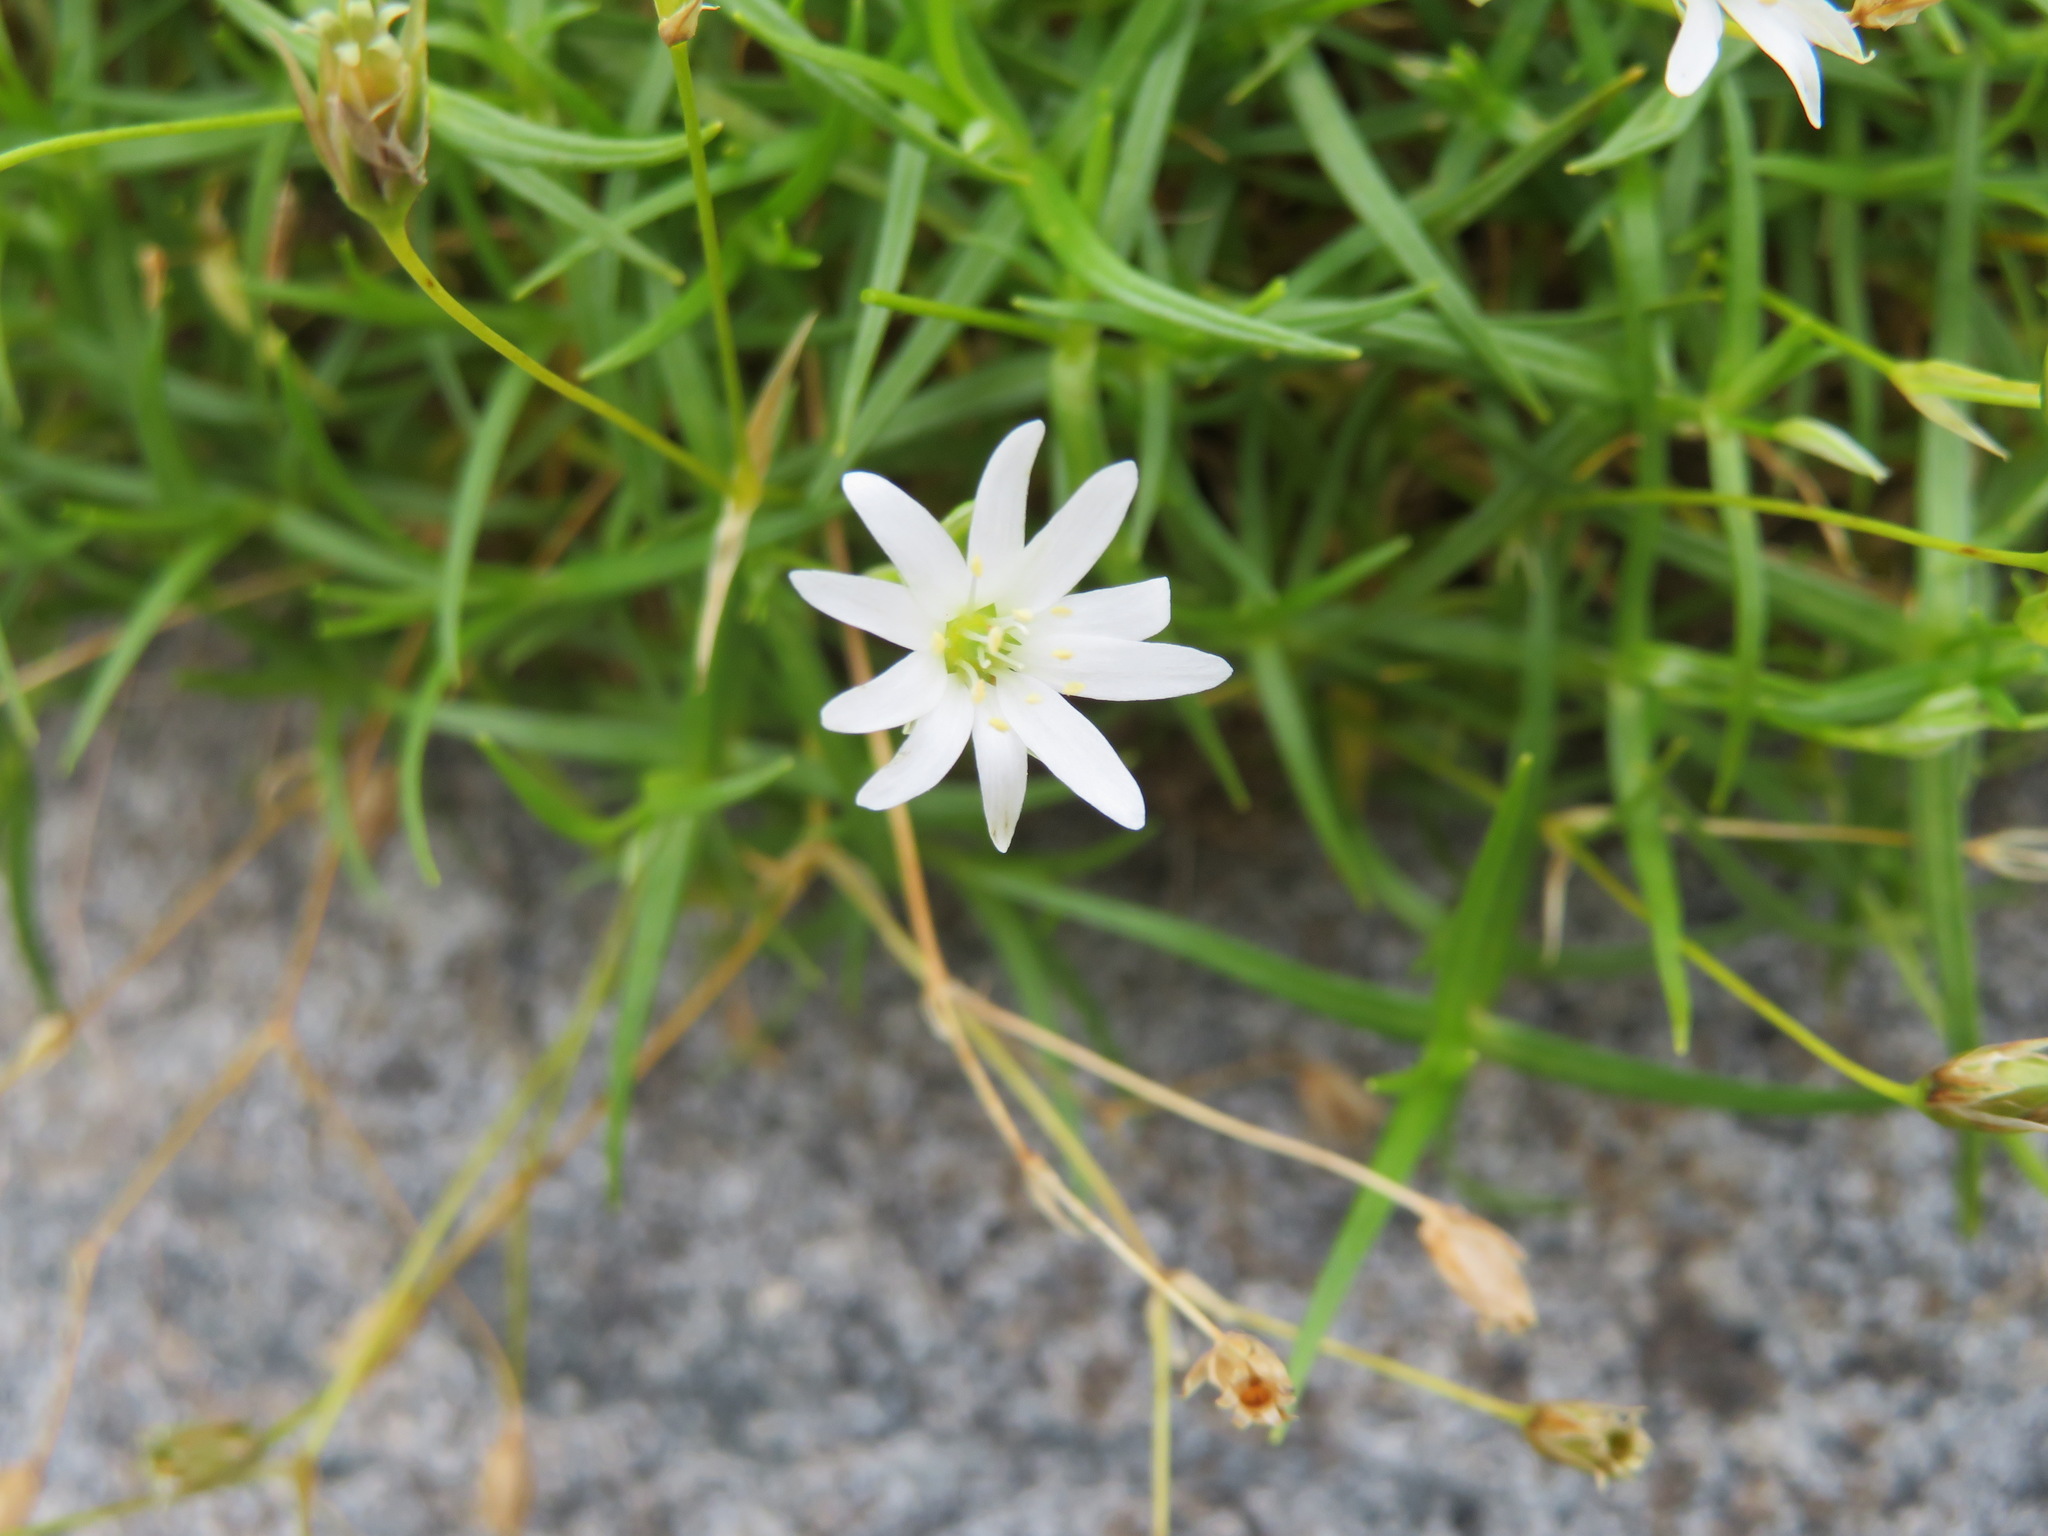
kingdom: Plantae
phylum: Tracheophyta
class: Magnoliopsida
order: Caryophyllales
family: Caryophyllaceae
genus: Stellaria
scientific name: Stellaria nipponica
